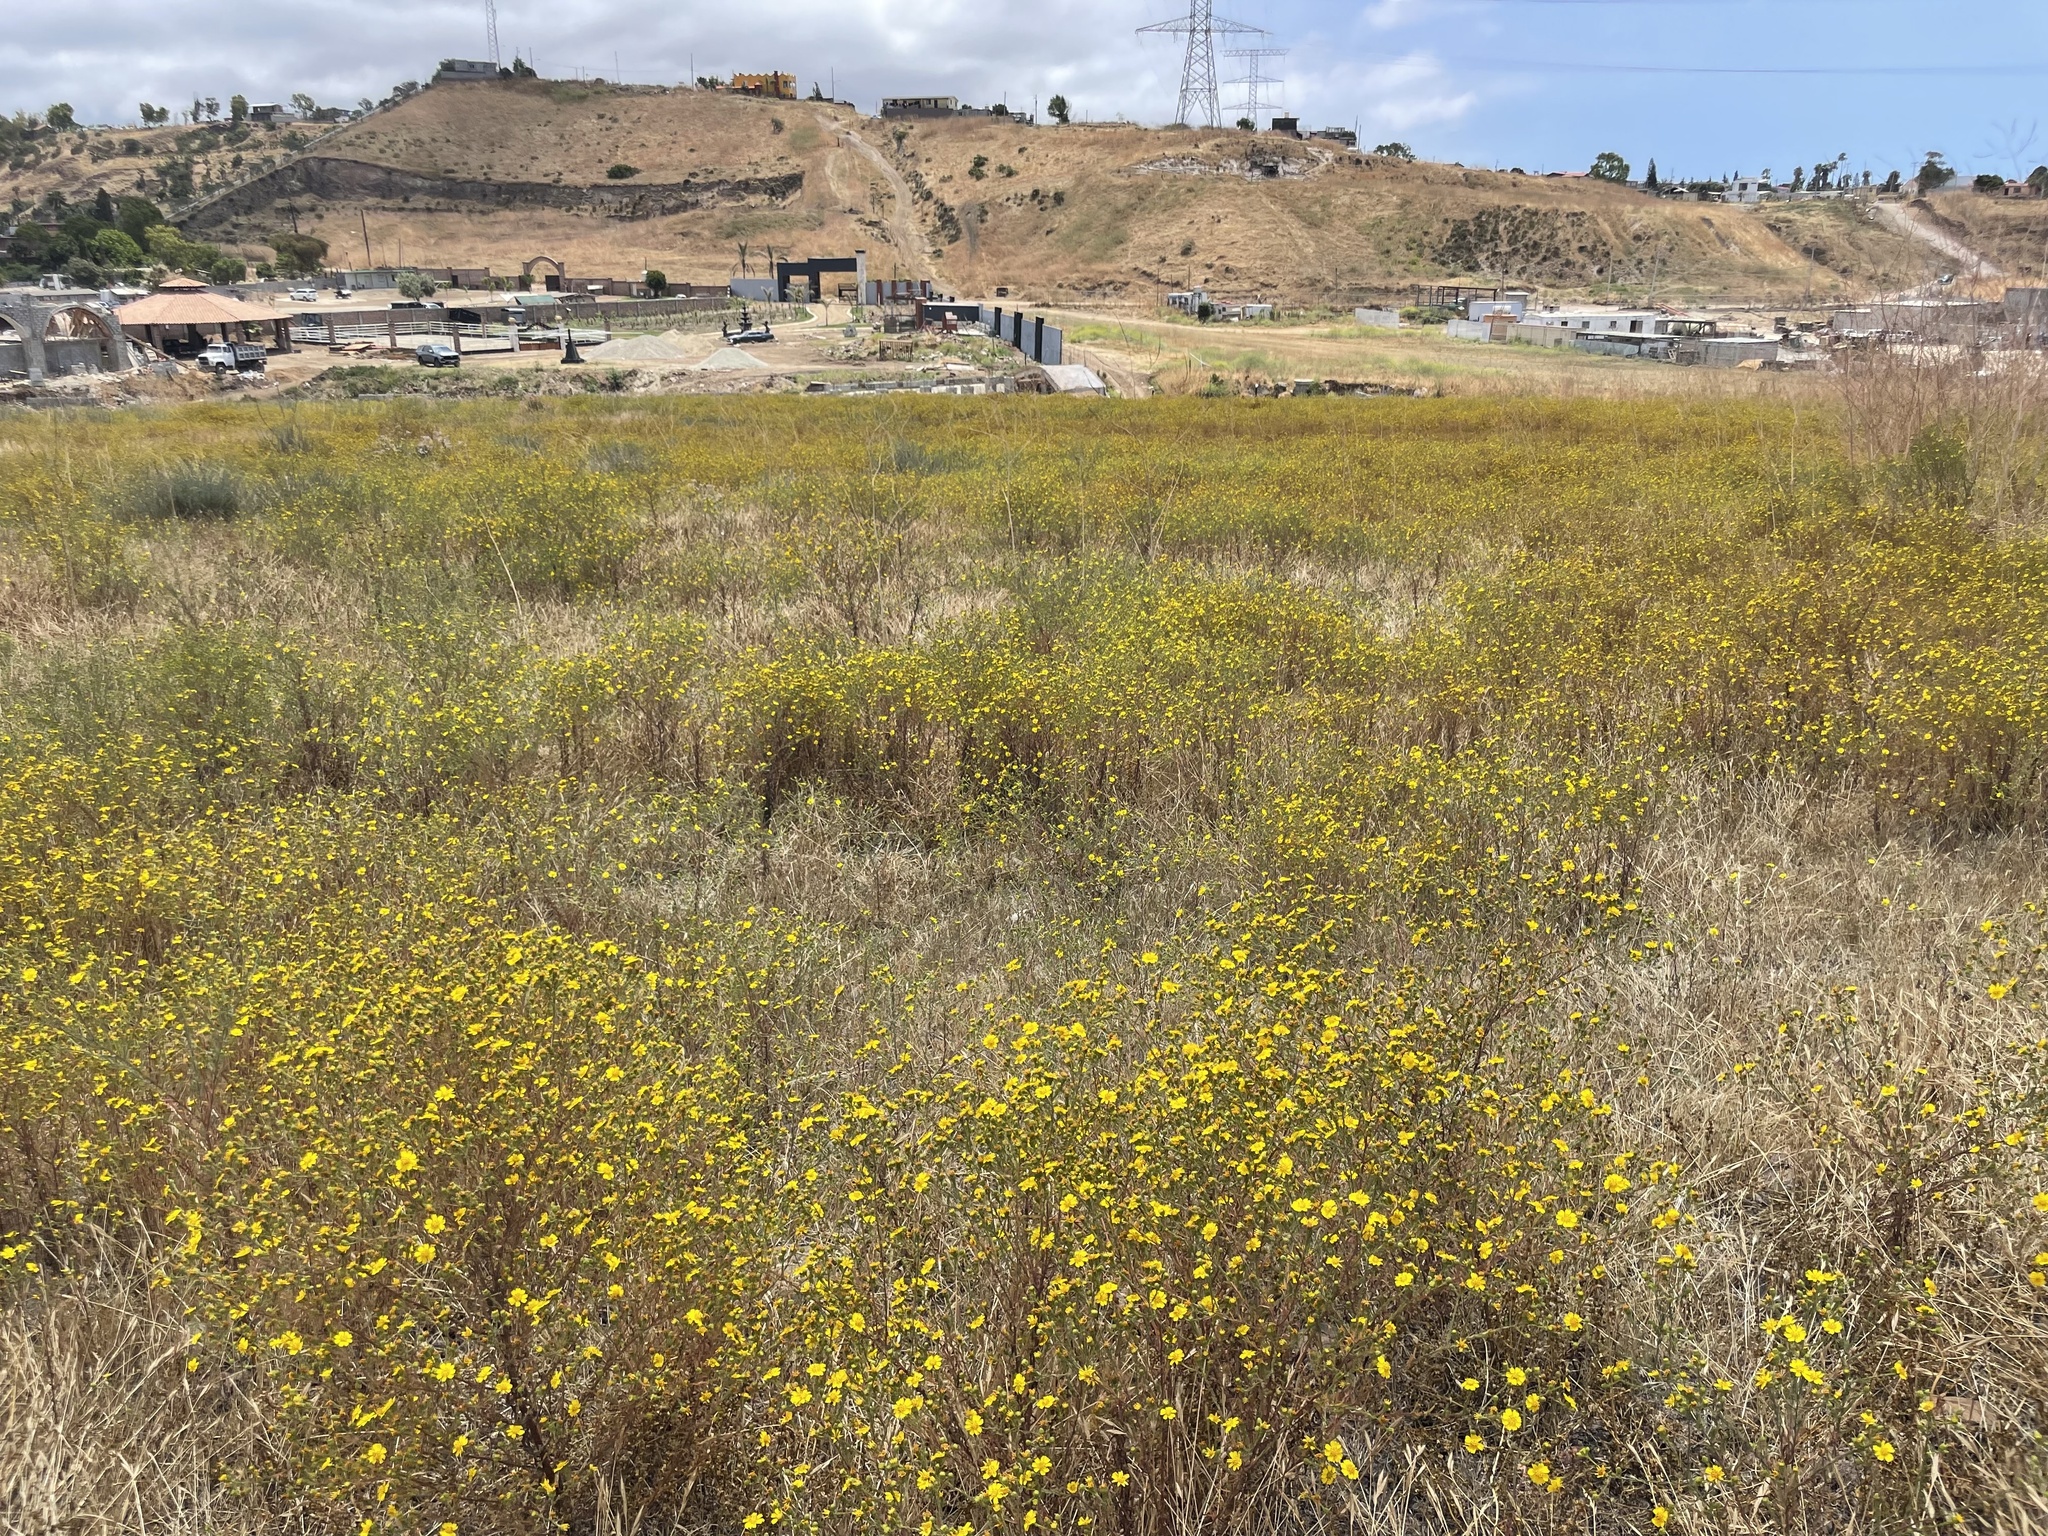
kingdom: Plantae
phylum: Tracheophyta
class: Magnoliopsida
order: Asterales
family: Asteraceae
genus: Deinandra
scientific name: Deinandra conjugens
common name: Otay tarplant
